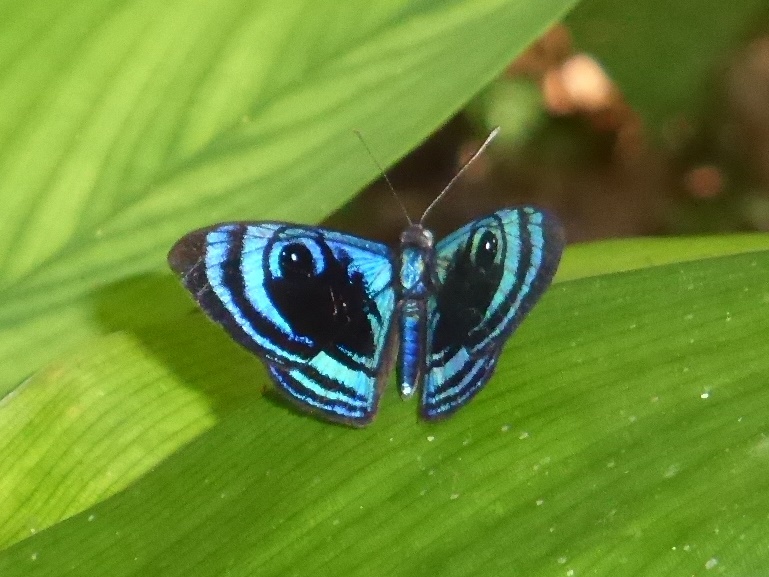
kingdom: Animalia
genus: Mesosemia
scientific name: Mesosemia epidius
